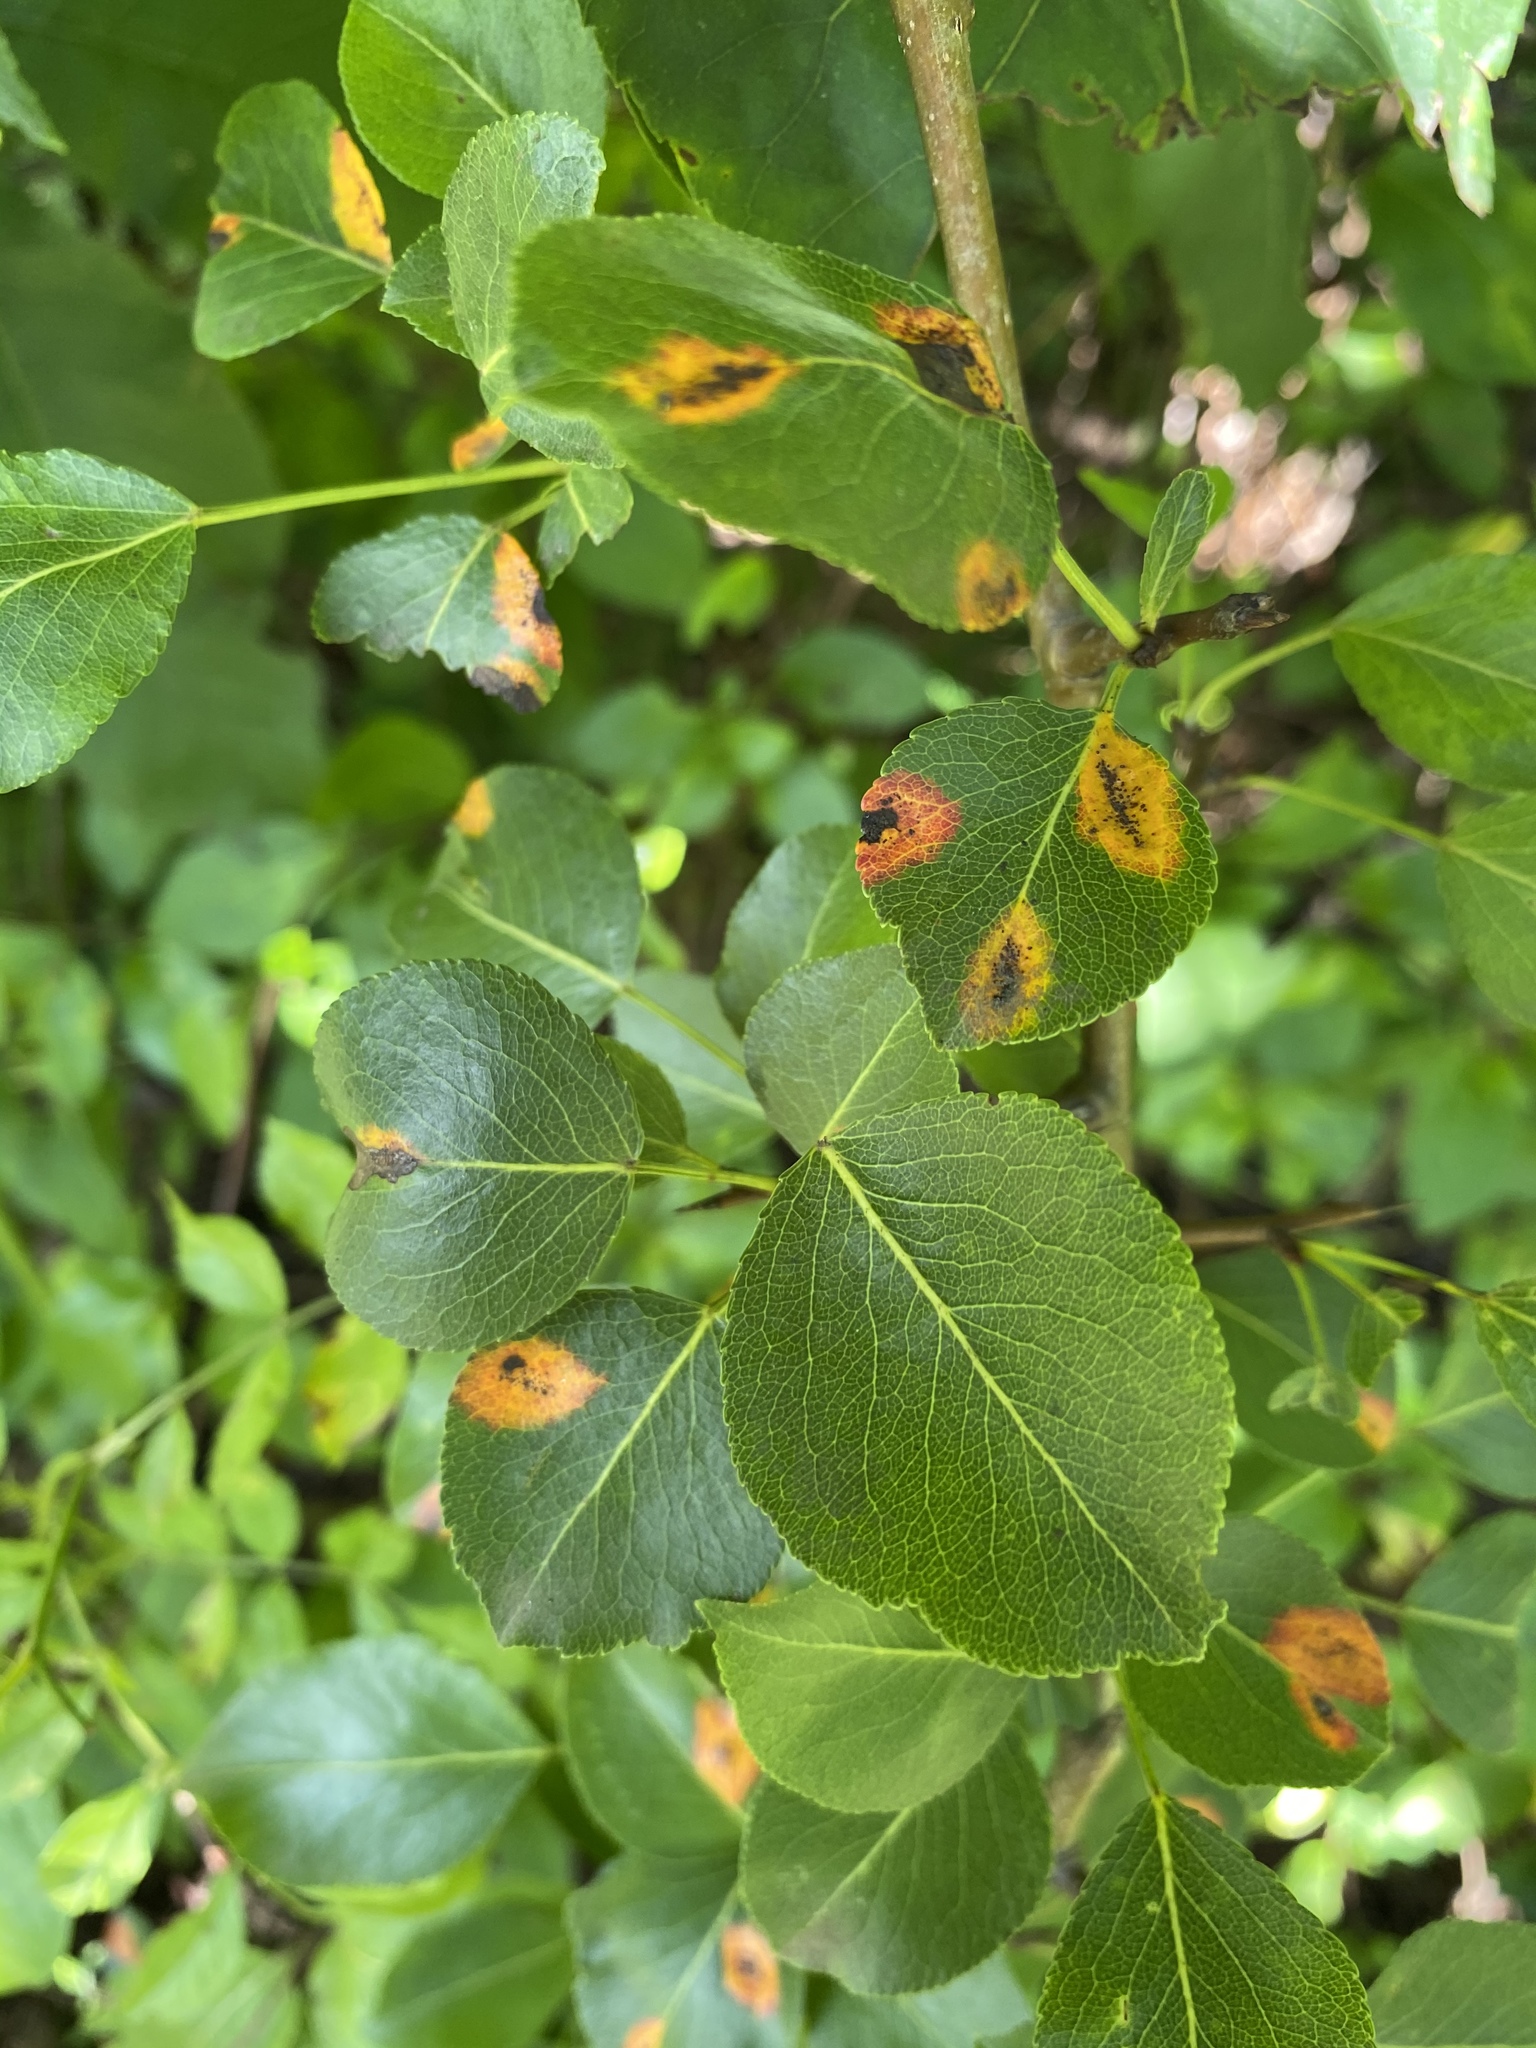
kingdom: Fungi
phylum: Basidiomycota
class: Pucciniomycetes
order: Pucciniales
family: Gymnosporangiaceae
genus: Gymnosporangium
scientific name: Gymnosporangium sabinae
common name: Pear trellis rust fungus
